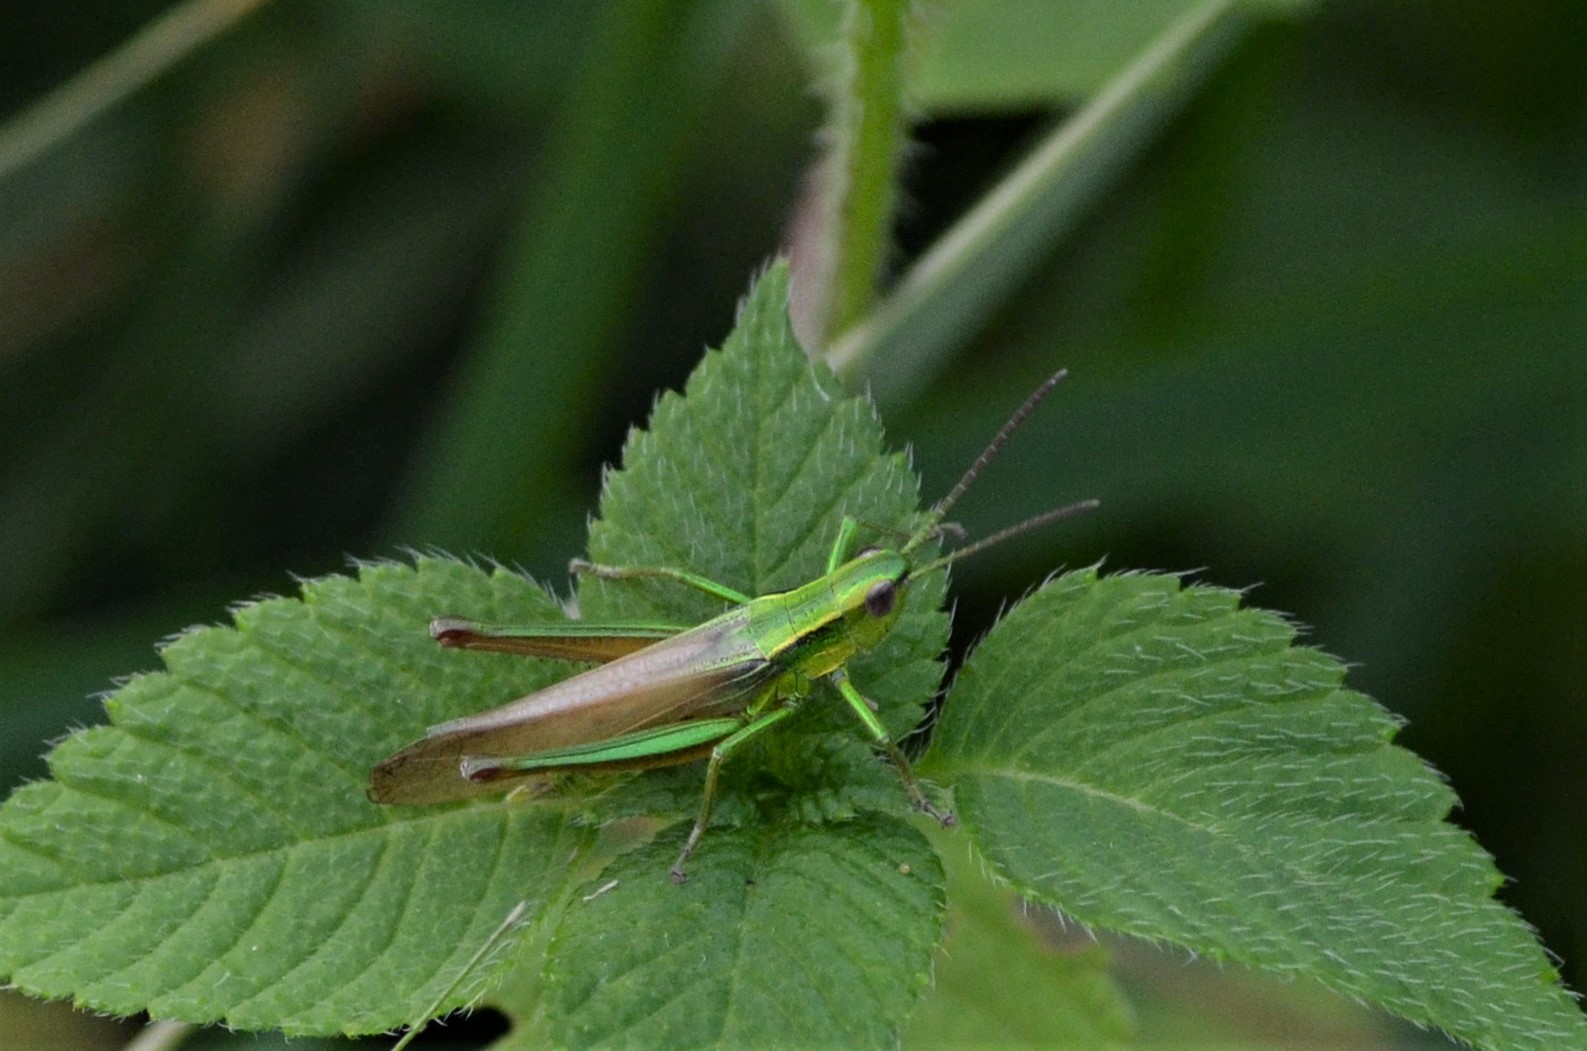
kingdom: Animalia
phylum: Arthropoda
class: Insecta
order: Orthoptera
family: Acrididae
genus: Euthystira
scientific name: Euthystira brachyptera
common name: Small gold grasshopper
